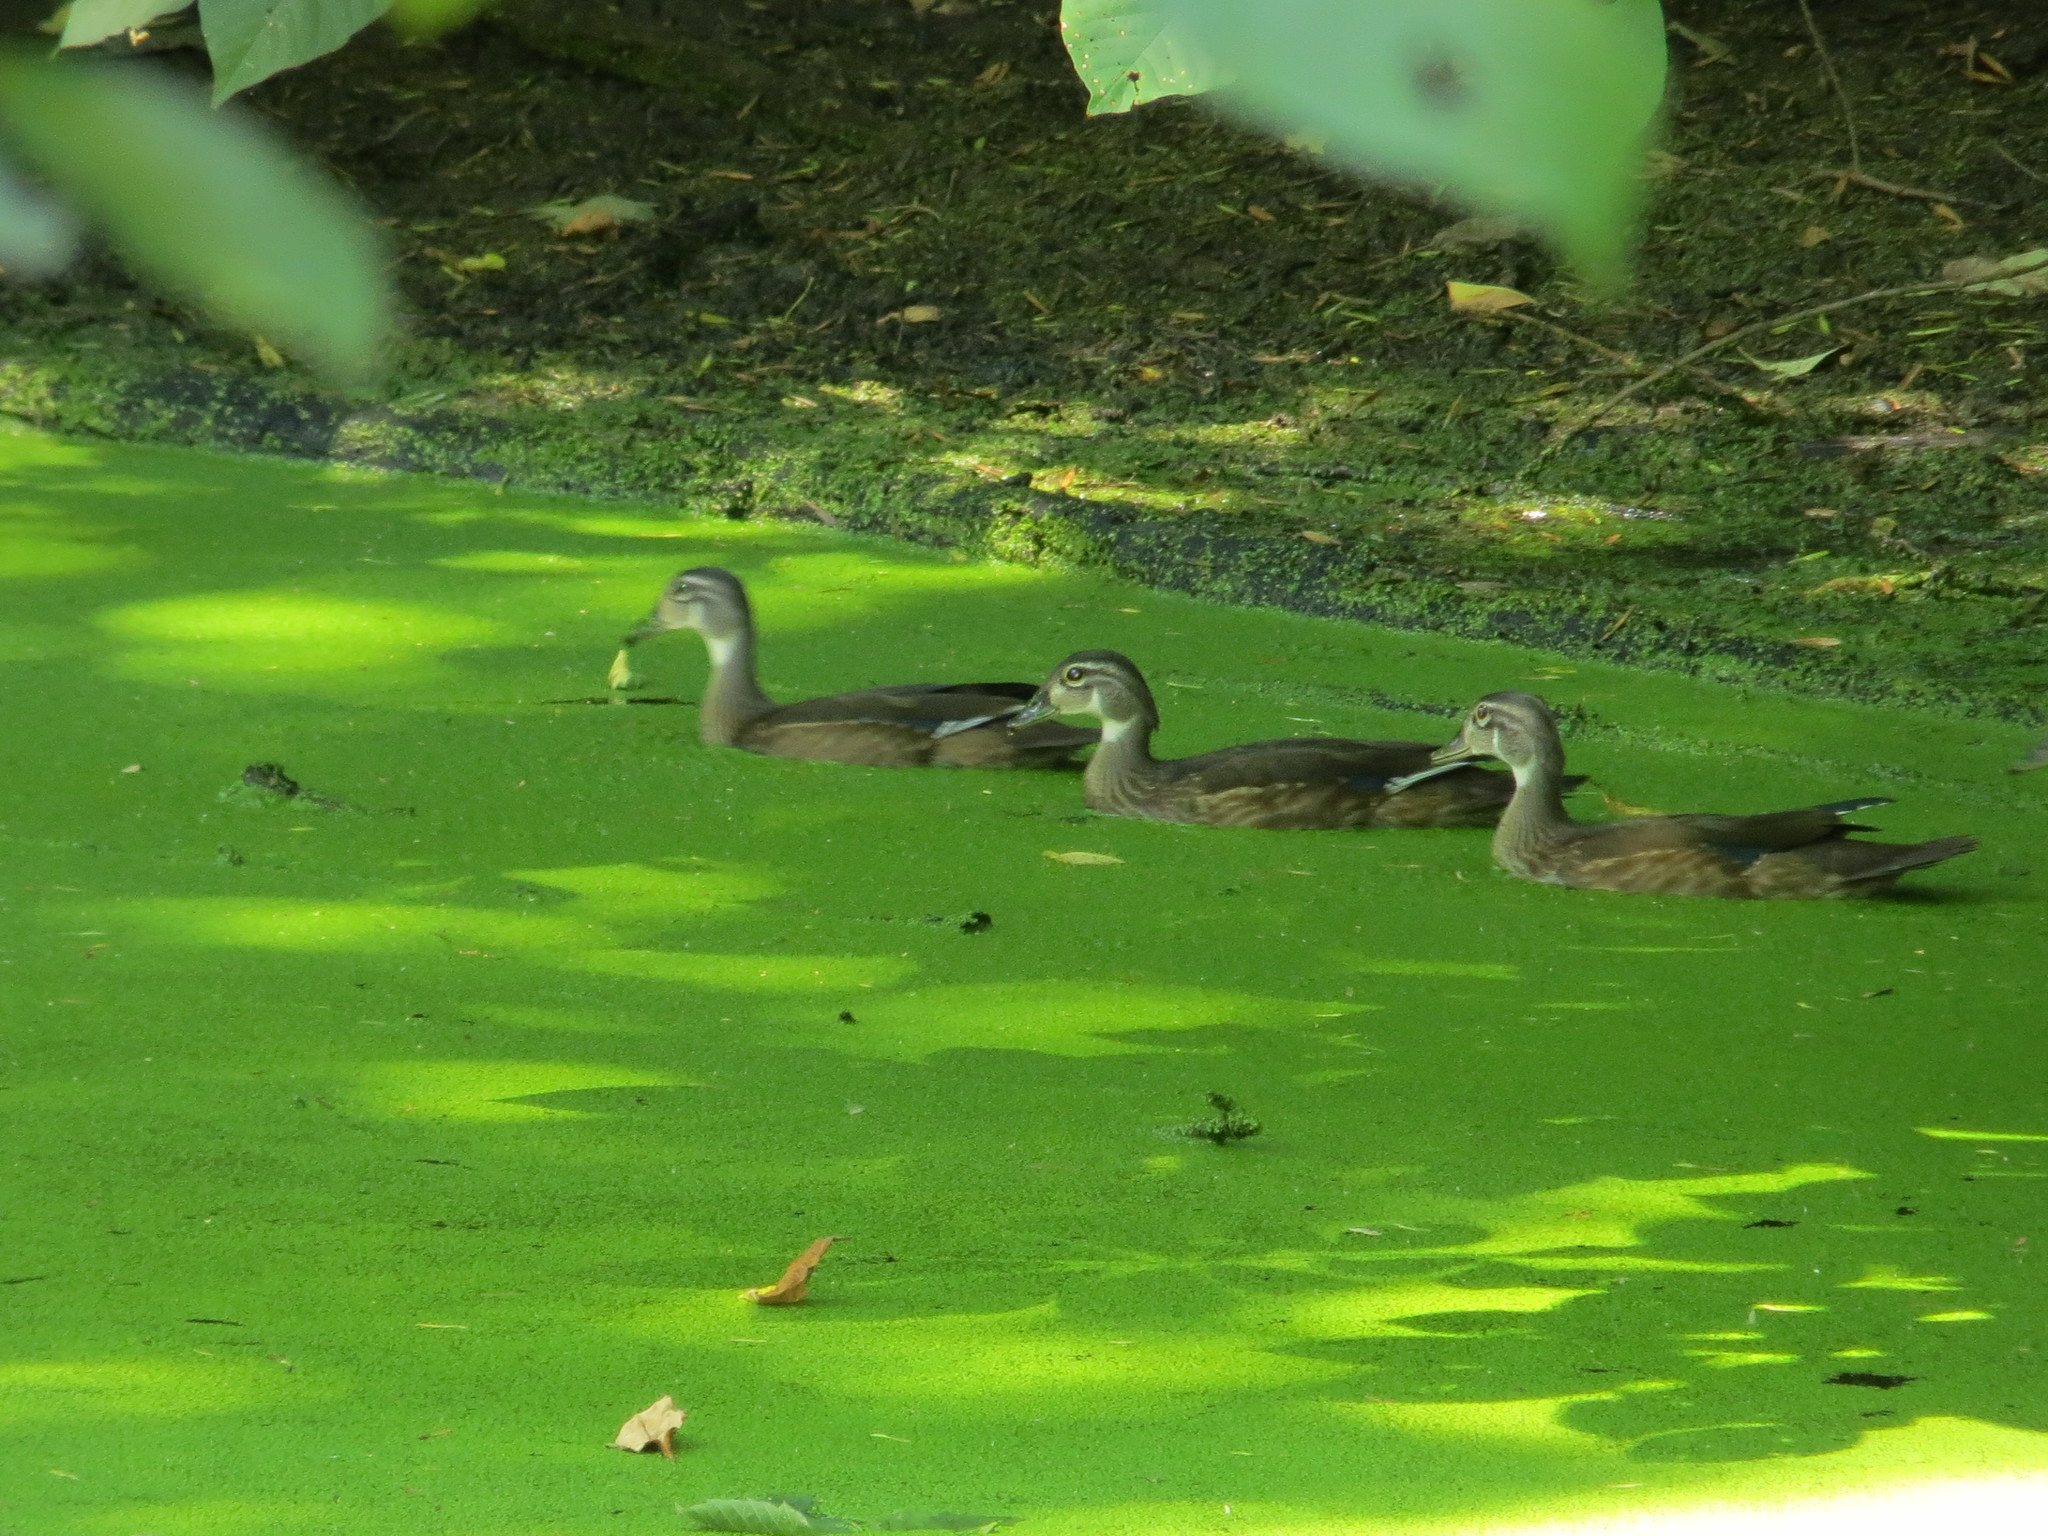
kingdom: Animalia
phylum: Chordata
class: Aves
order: Anseriformes
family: Anatidae
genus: Aix
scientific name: Aix sponsa
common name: Wood duck
